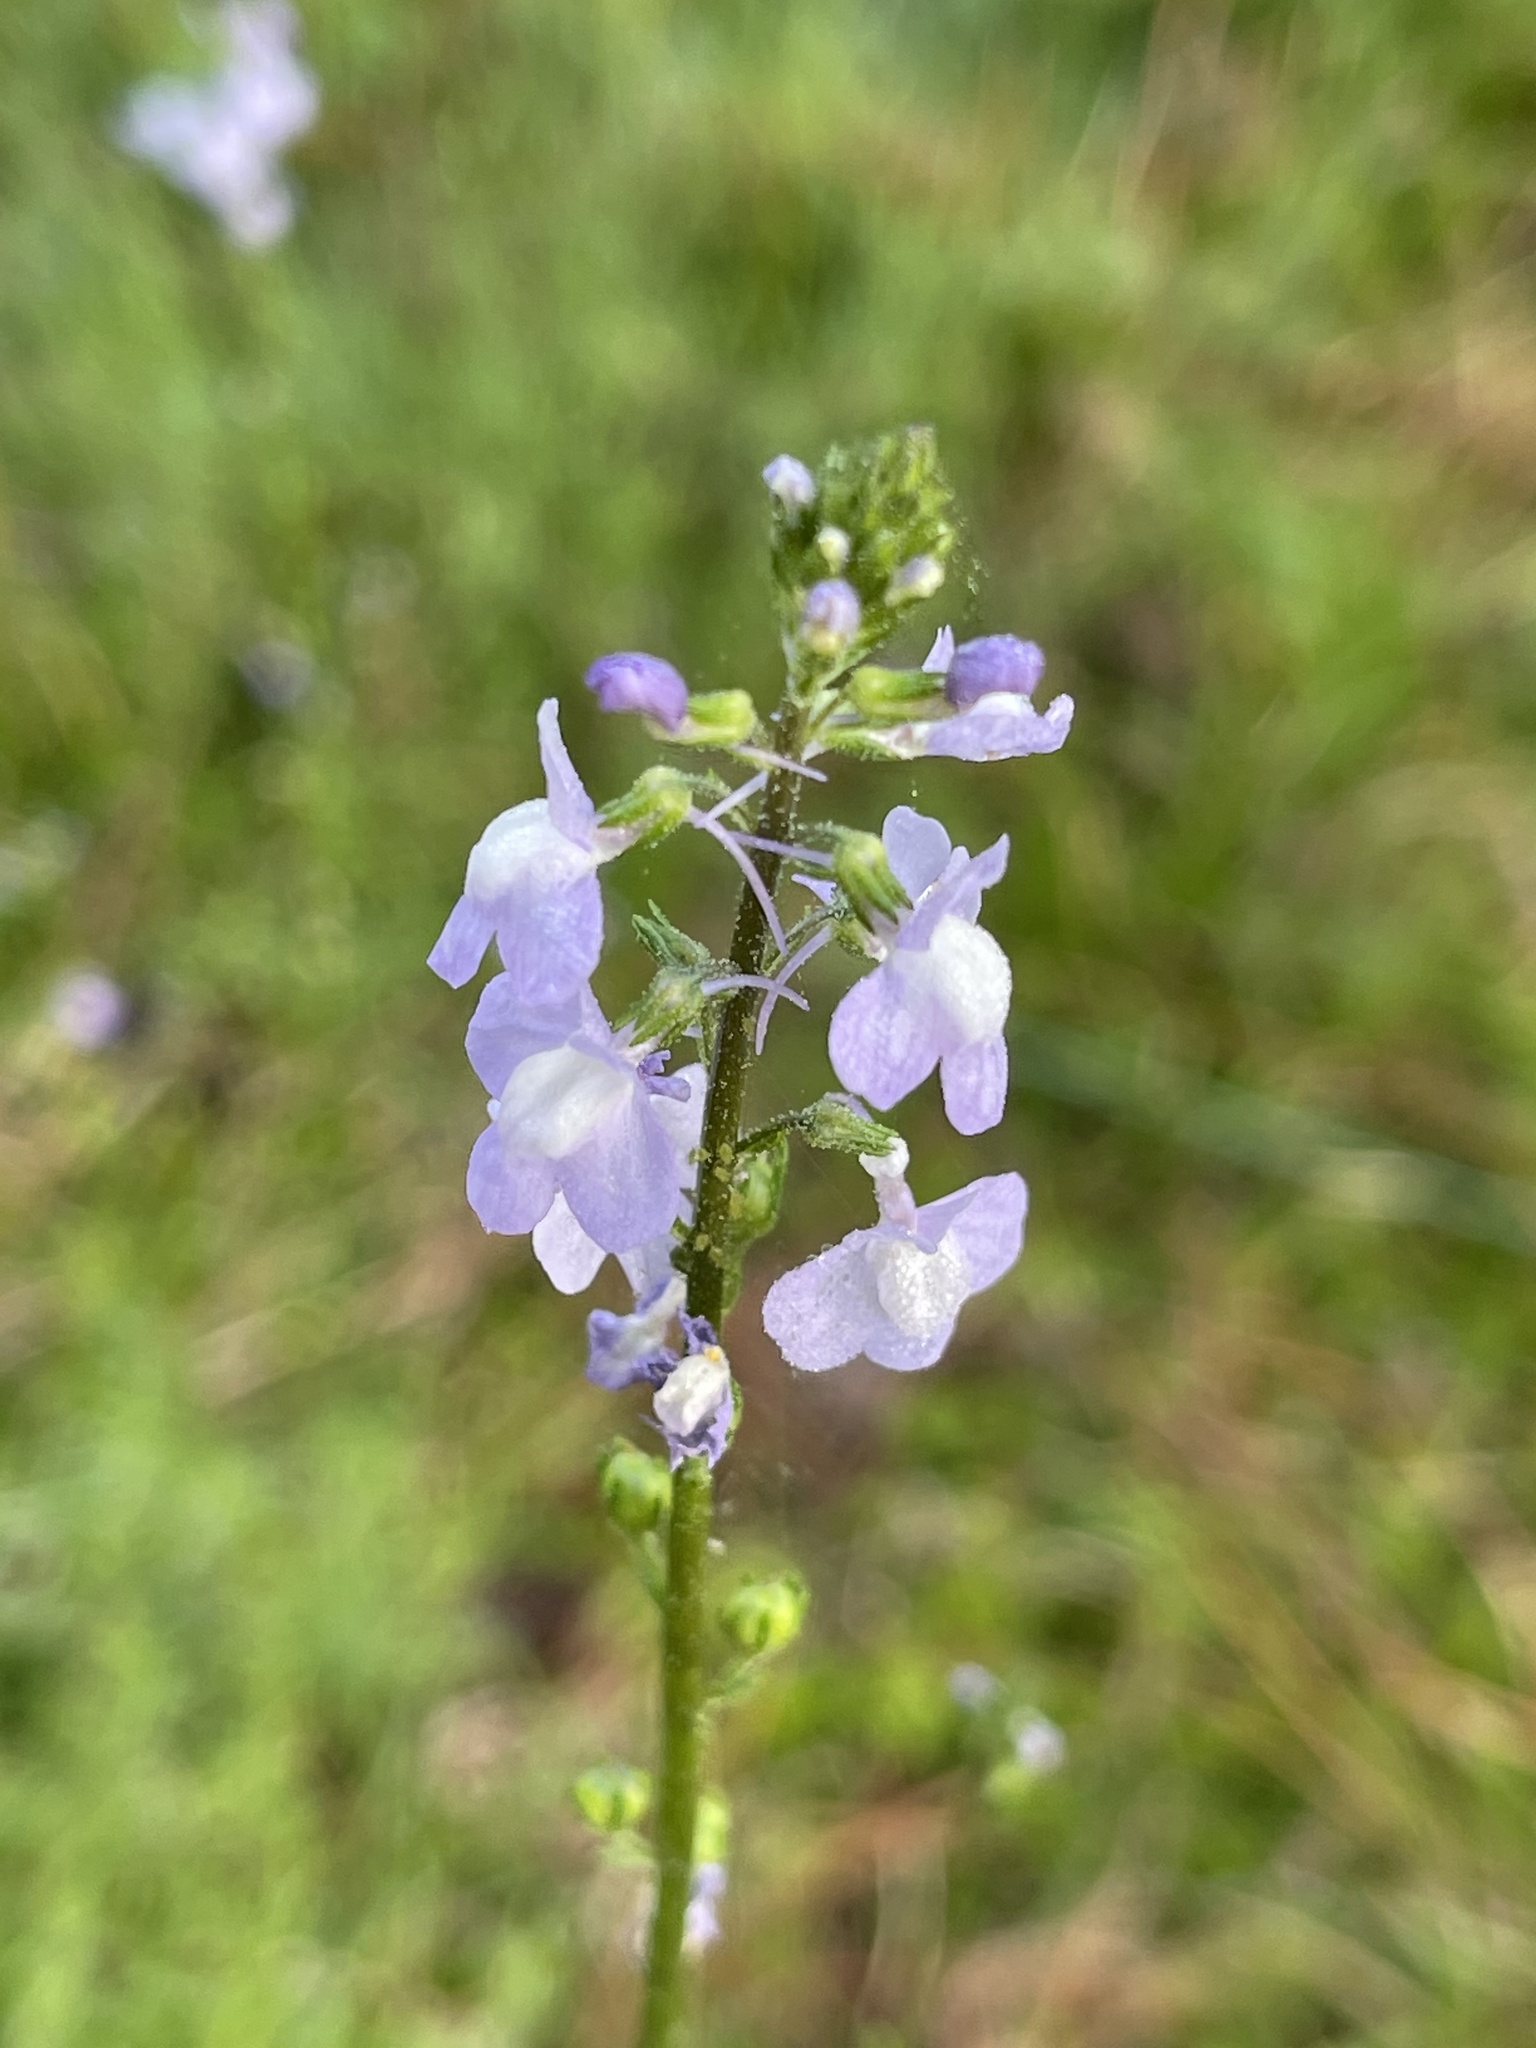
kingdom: Plantae
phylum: Tracheophyta
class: Magnoliopsida
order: Lamiales
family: Plantaginaceae
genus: Nuttallanthus
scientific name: Nuttallanthus canadensis
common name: Blue toadflax
